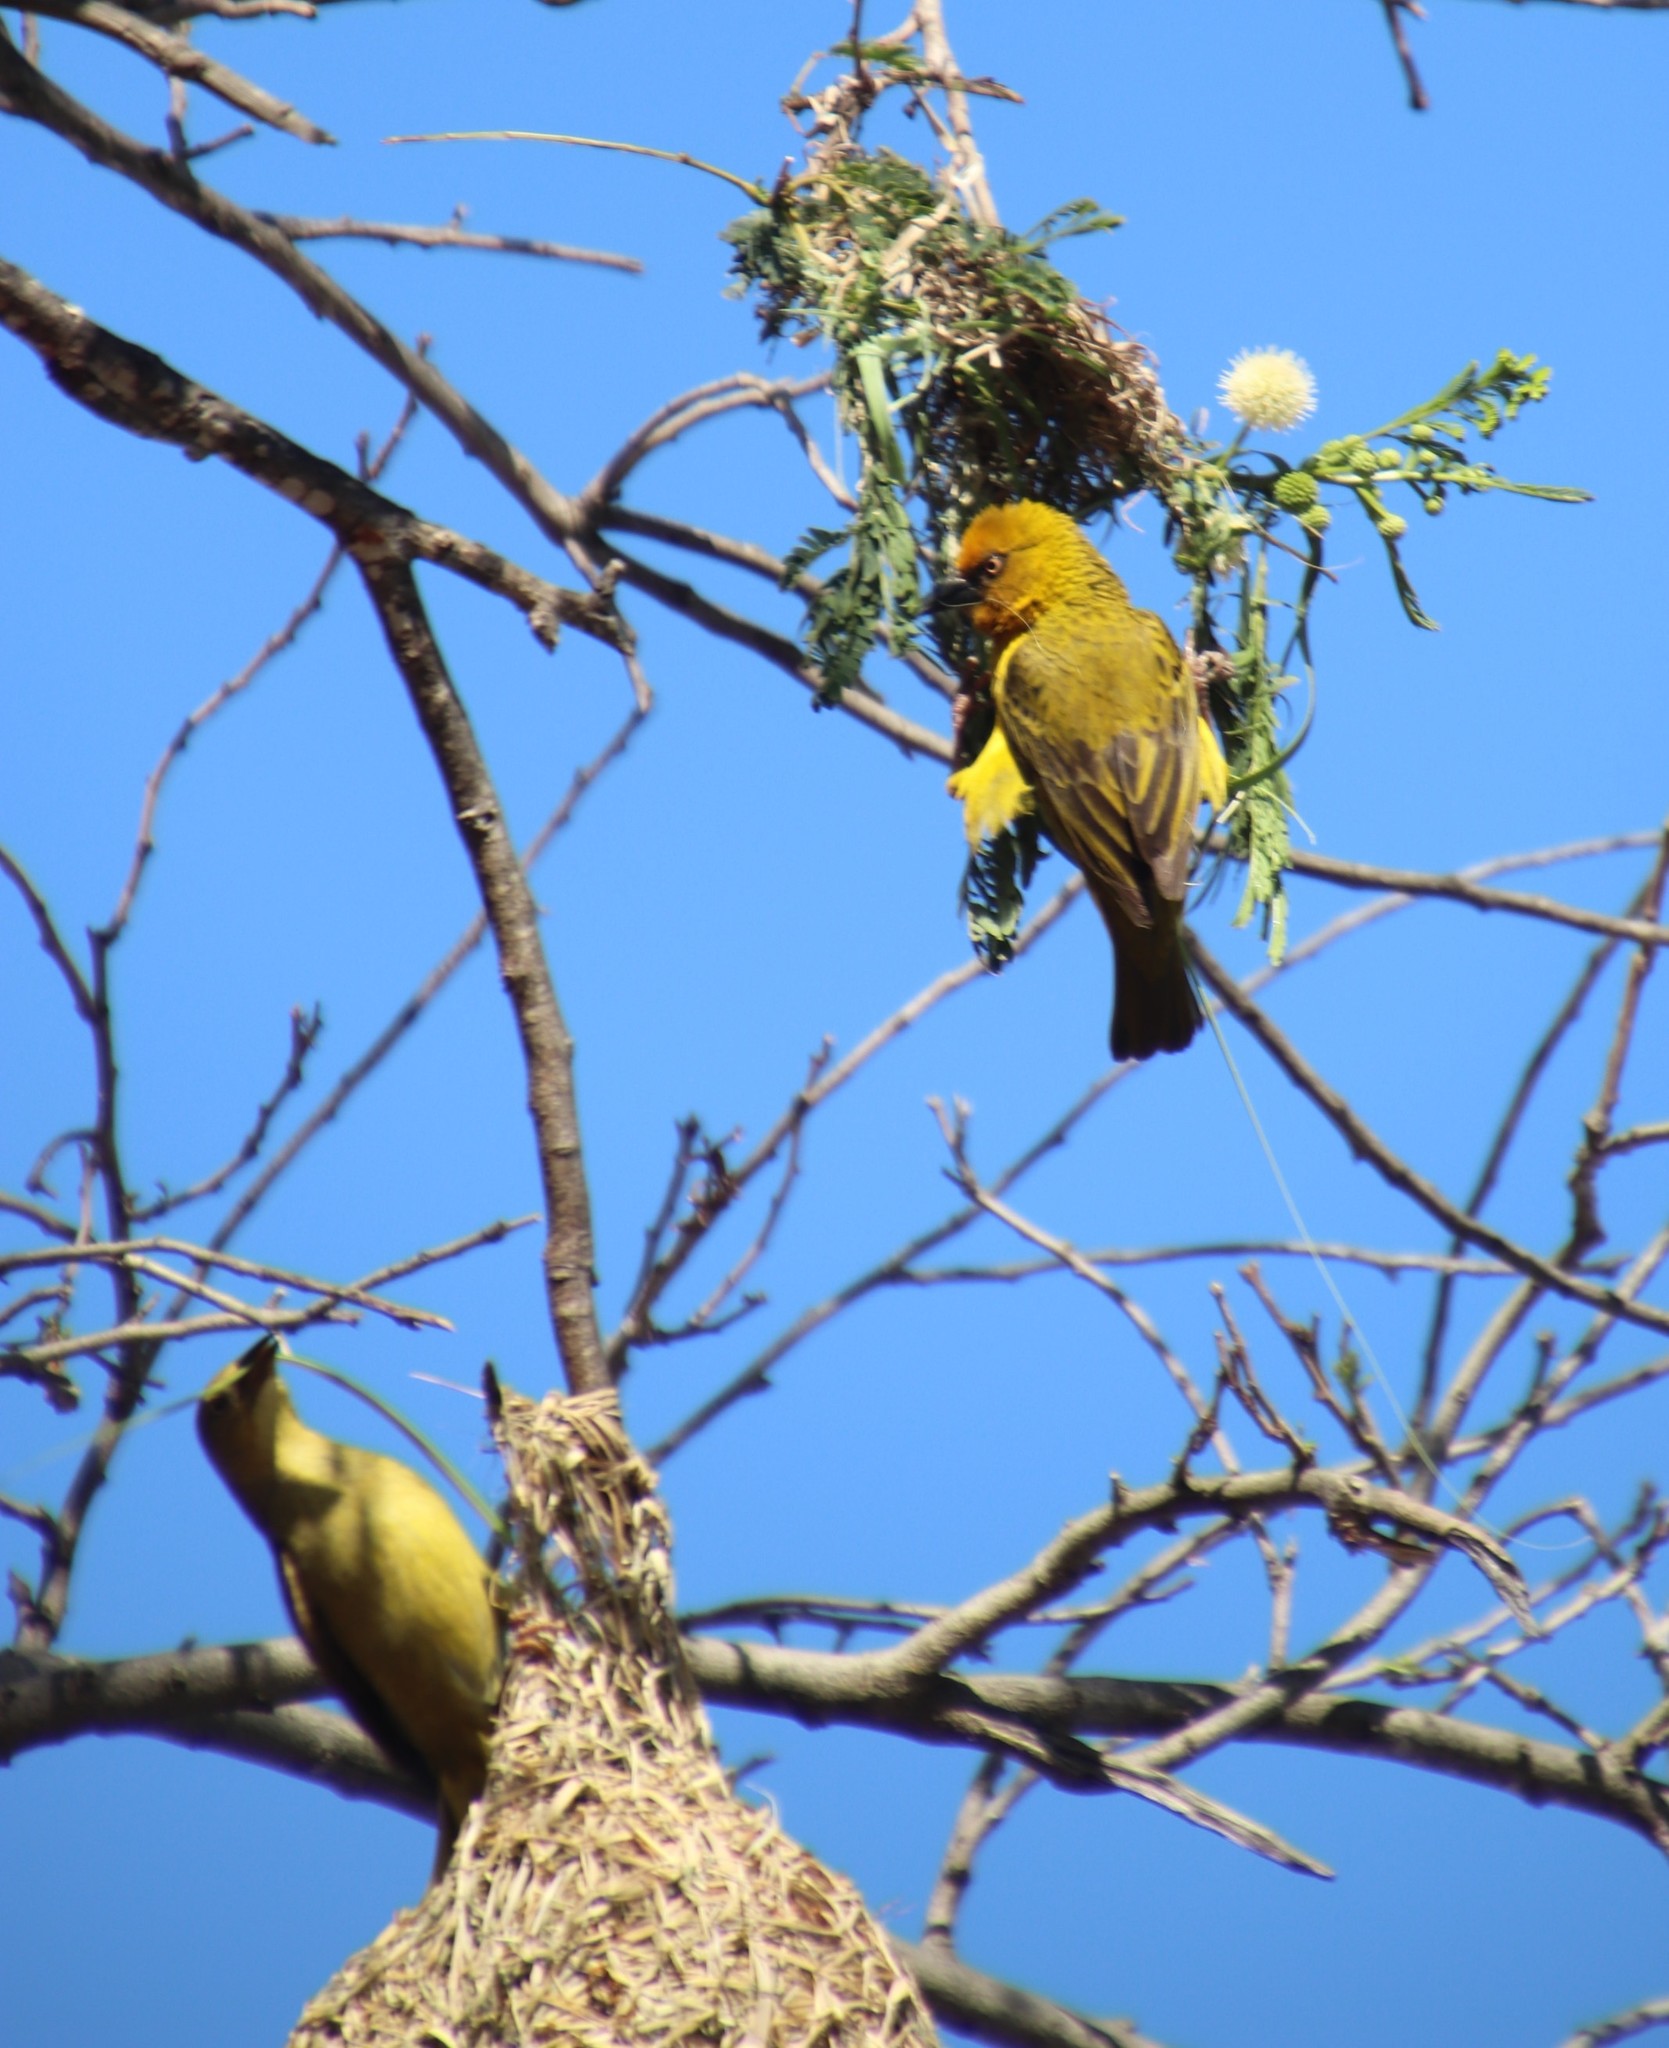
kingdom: Animalia
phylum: Chordata
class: Aves
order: Passeriformes
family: Ploceidae
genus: Ploceus
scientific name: Ploceus capensis
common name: Cape weaver
